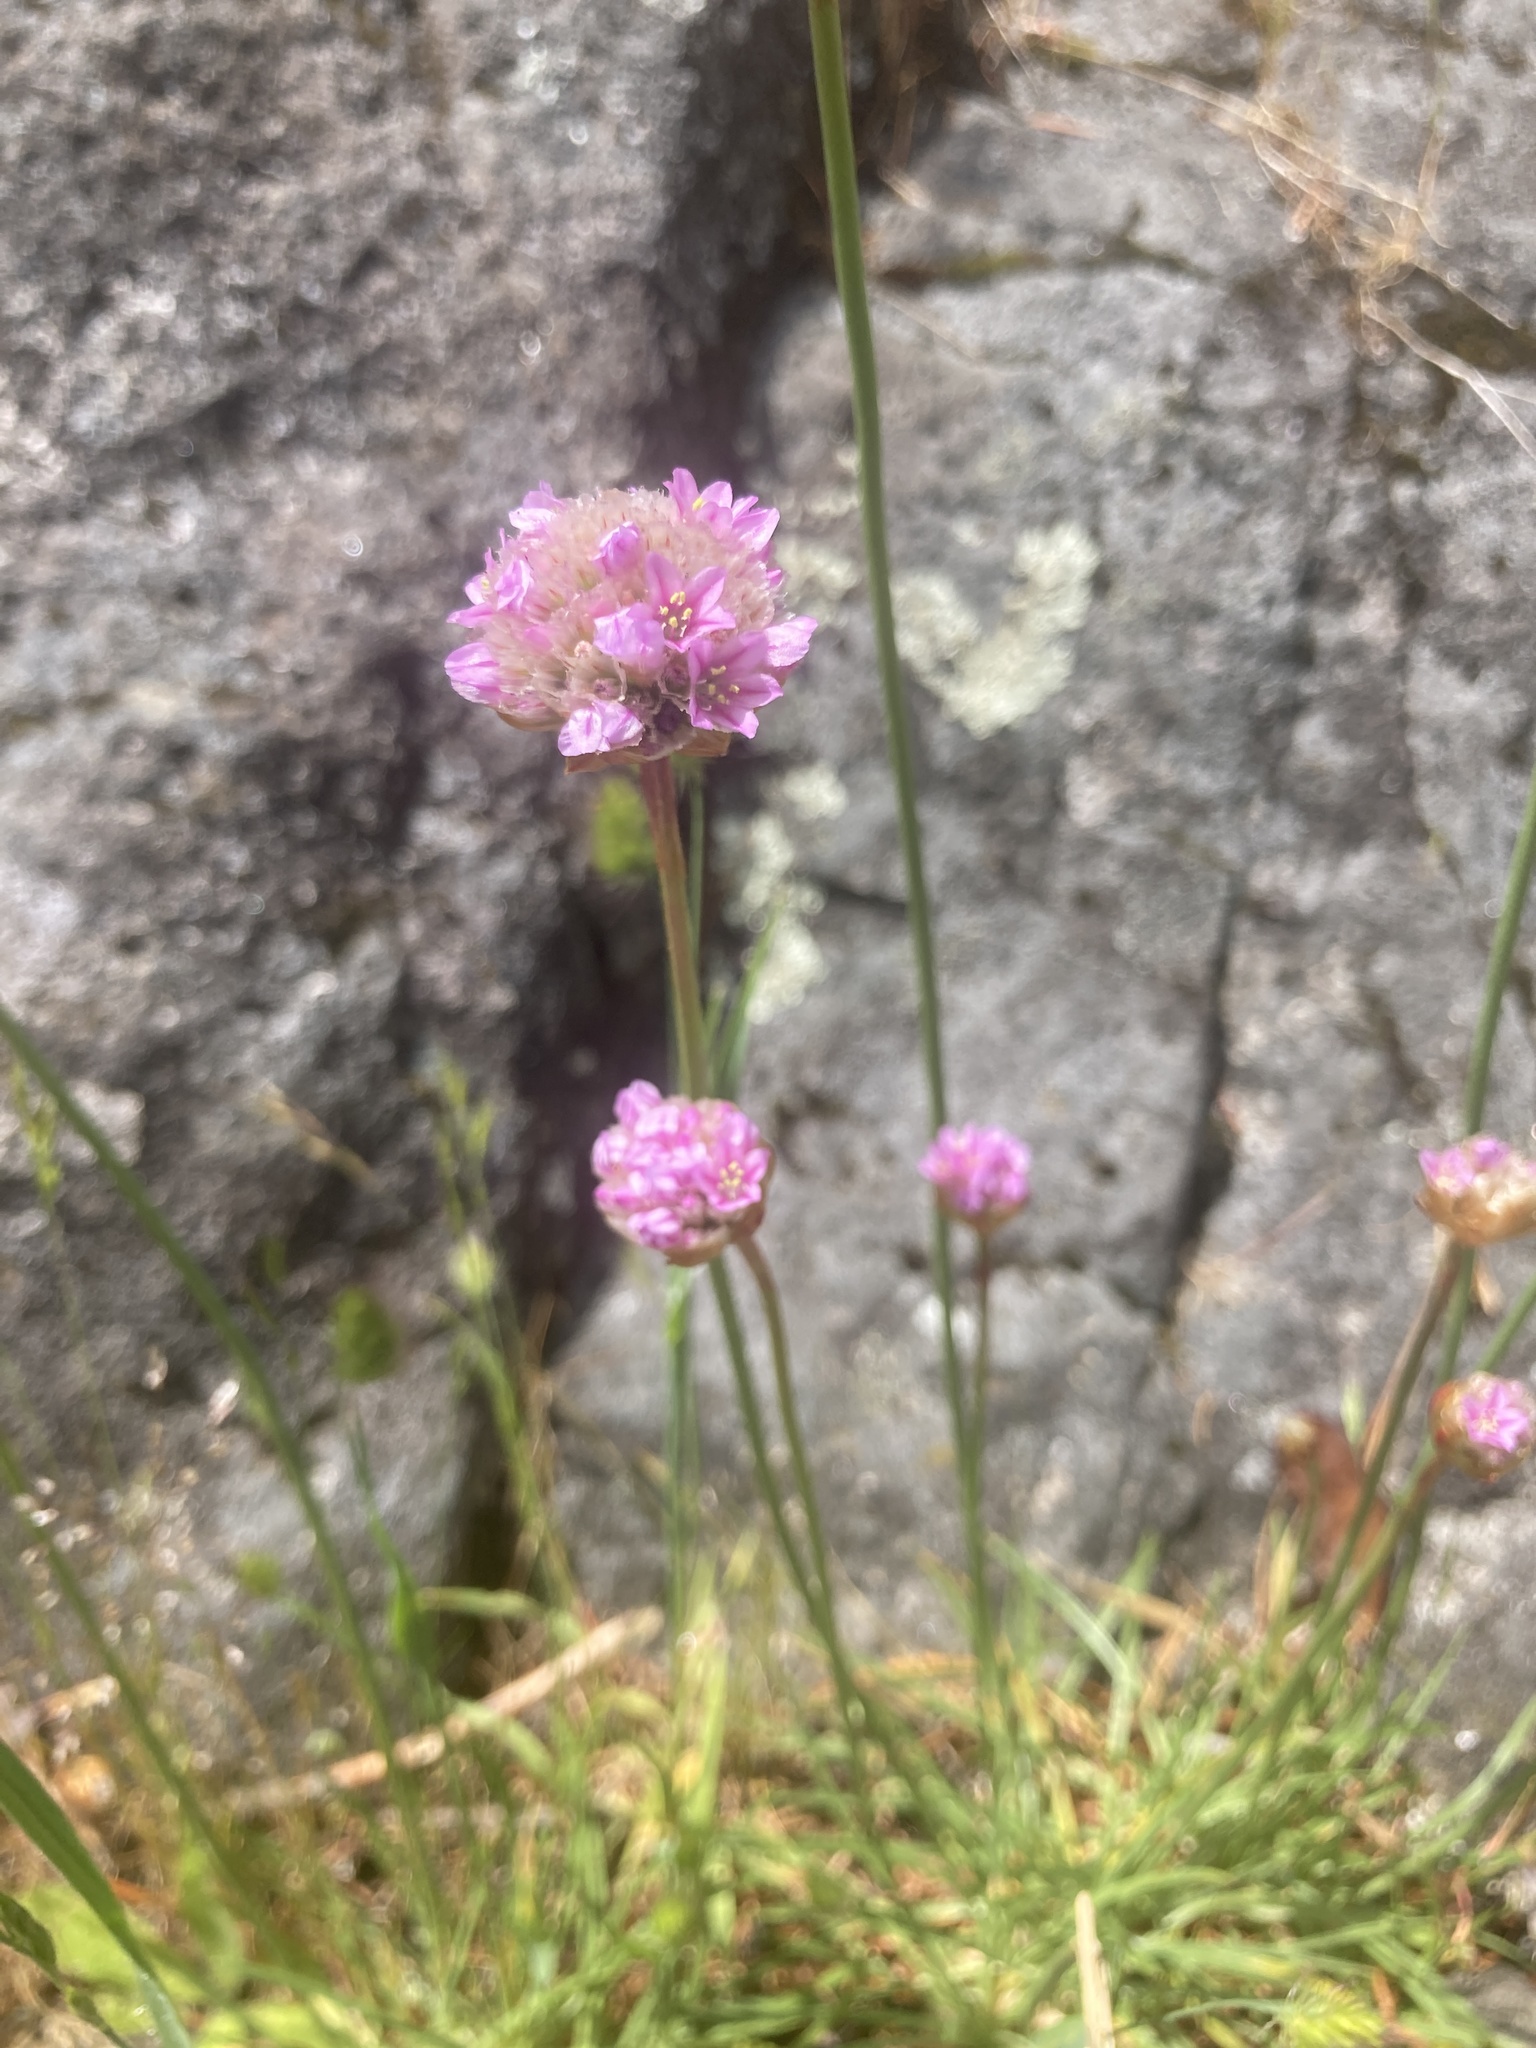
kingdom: Plantae
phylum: Tracheophyta
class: Magnoliopsida
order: Caryophyllales
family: Plumbaginaceae
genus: Armeria
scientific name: Armeria maritima
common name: Thrift
